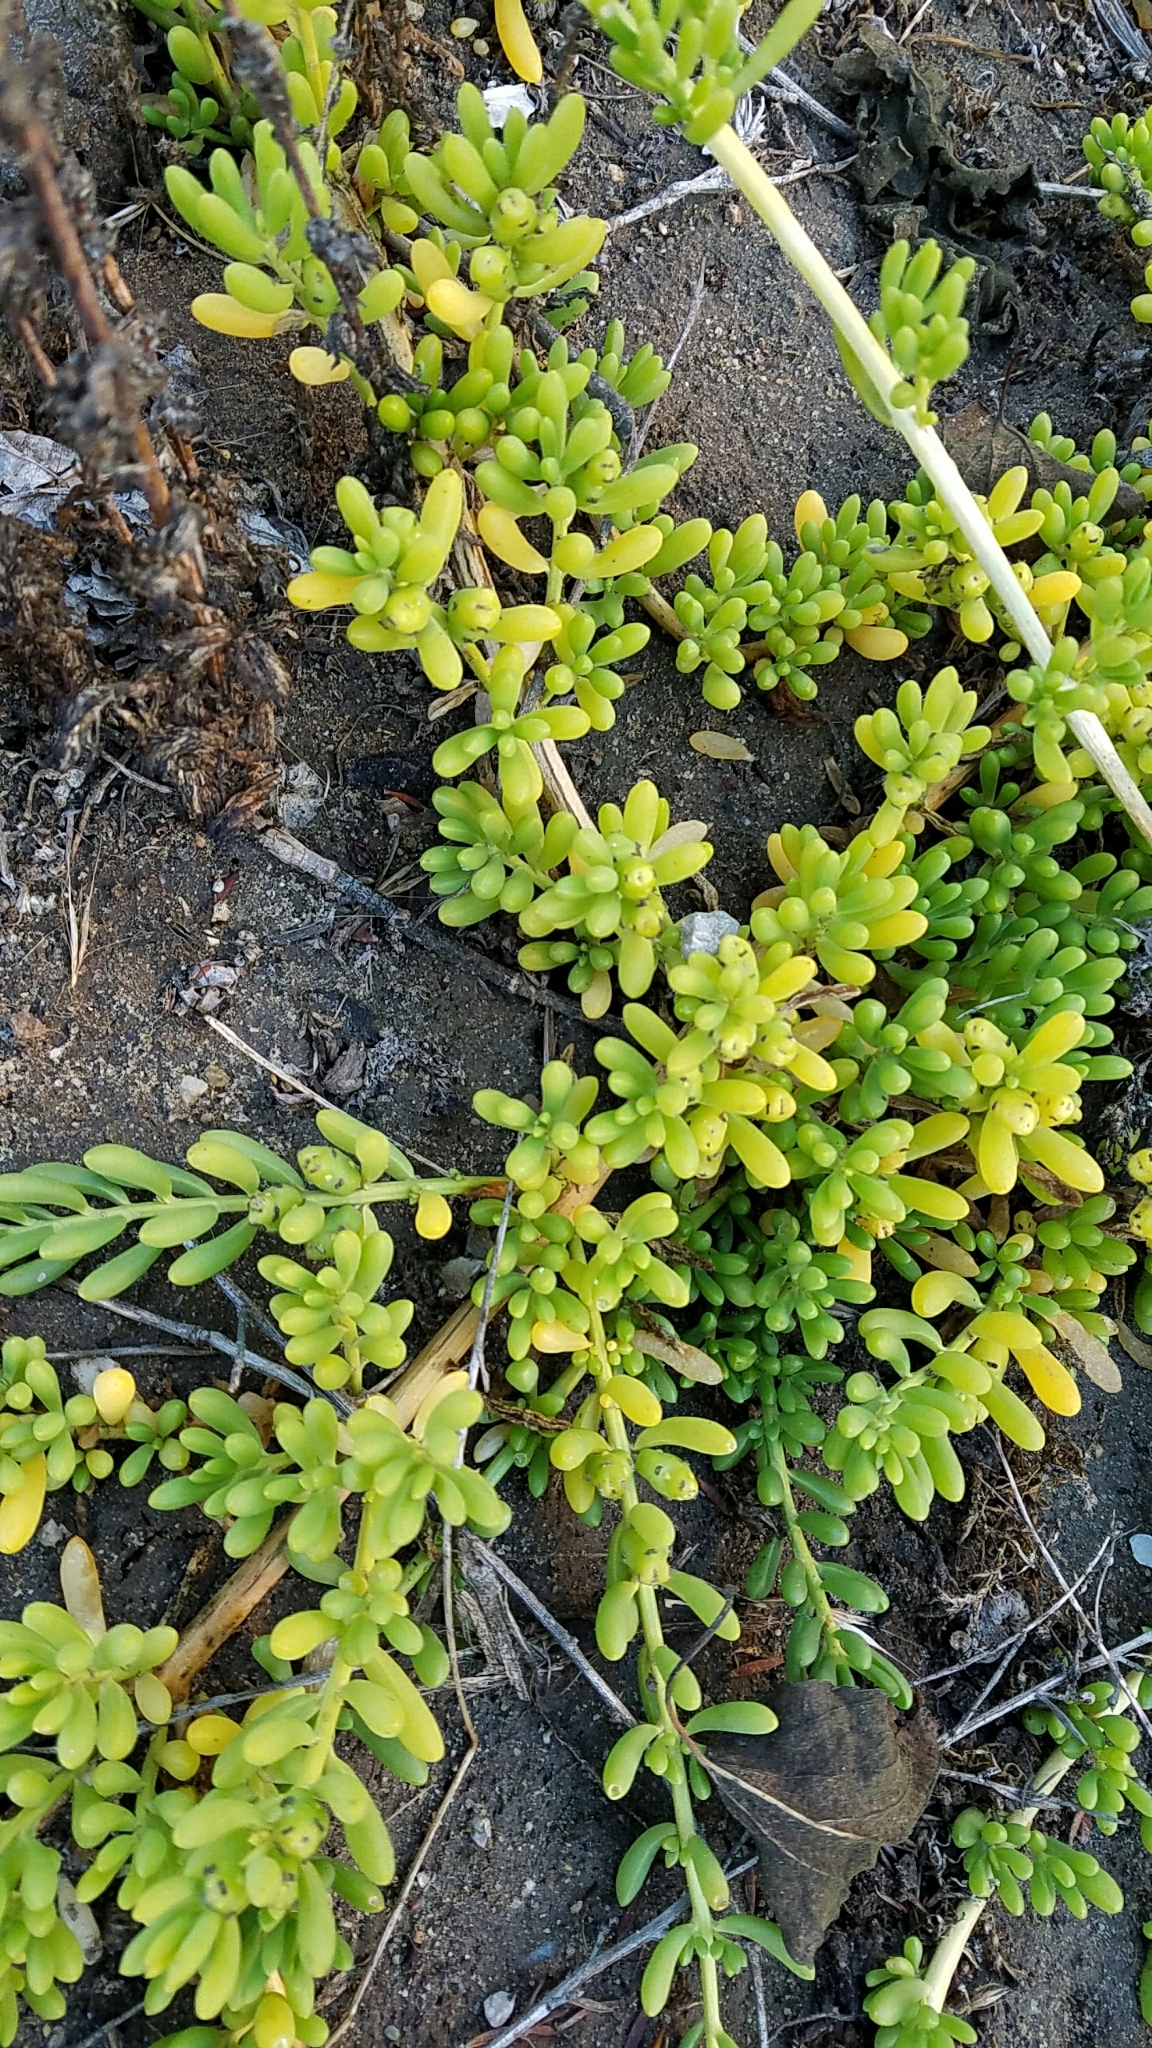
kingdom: Plantae
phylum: Tracheophyta
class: Magnoliopsida
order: Brassicales
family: Bataceae
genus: Batis
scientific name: Batis maritima
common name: Turtleweed
